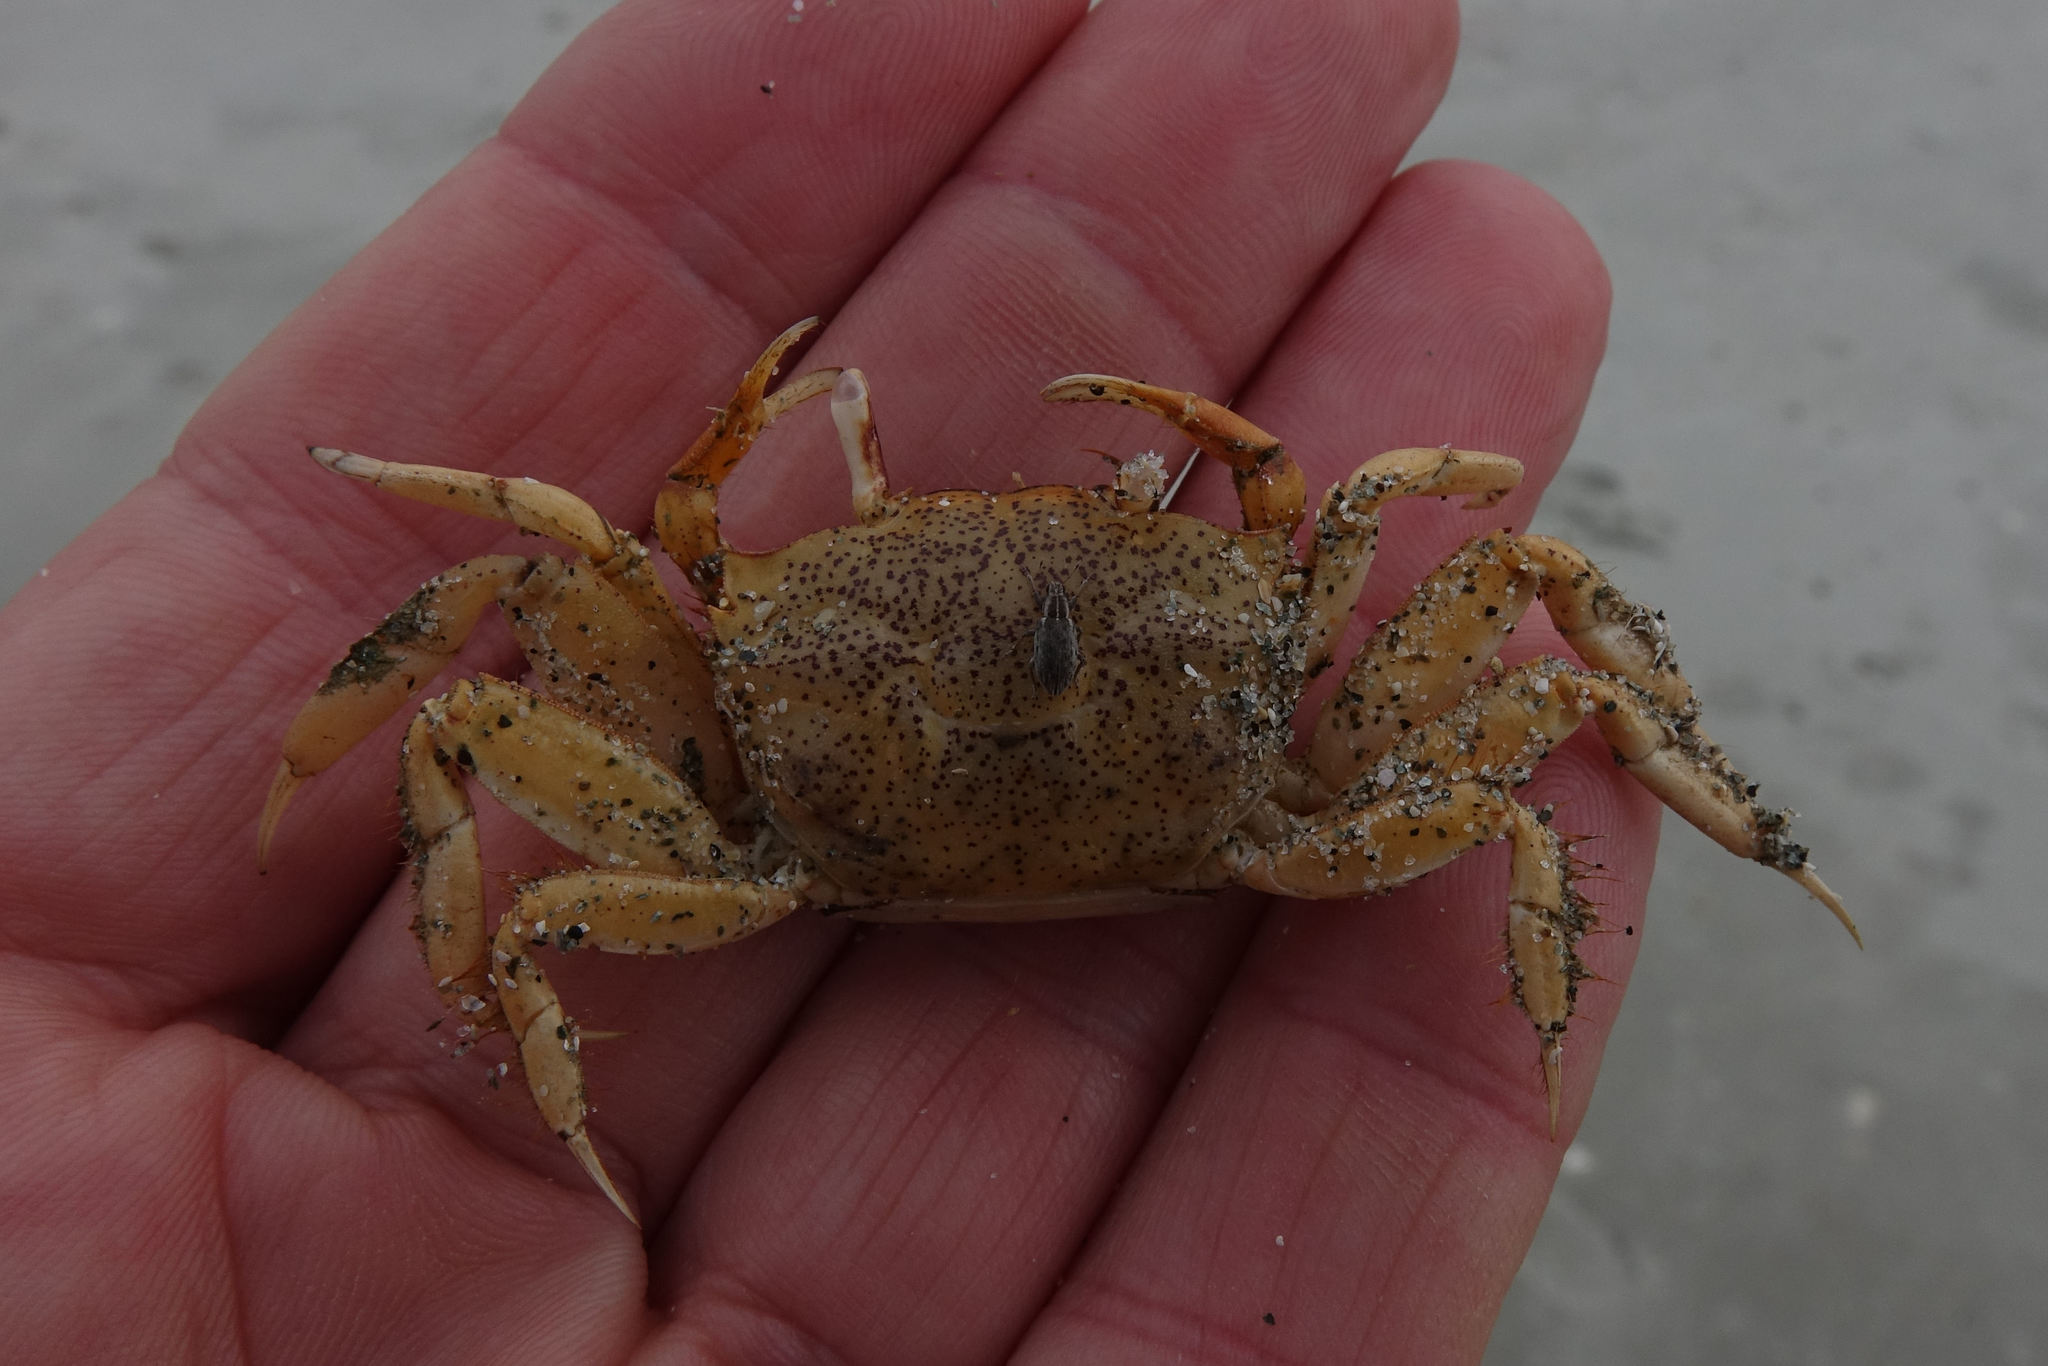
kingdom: Animalia
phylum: Arthropoda
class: Malacostraca
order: Decapoda
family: Macrophthalmidae
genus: Hemiplax
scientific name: Hemiplax hirtipes
